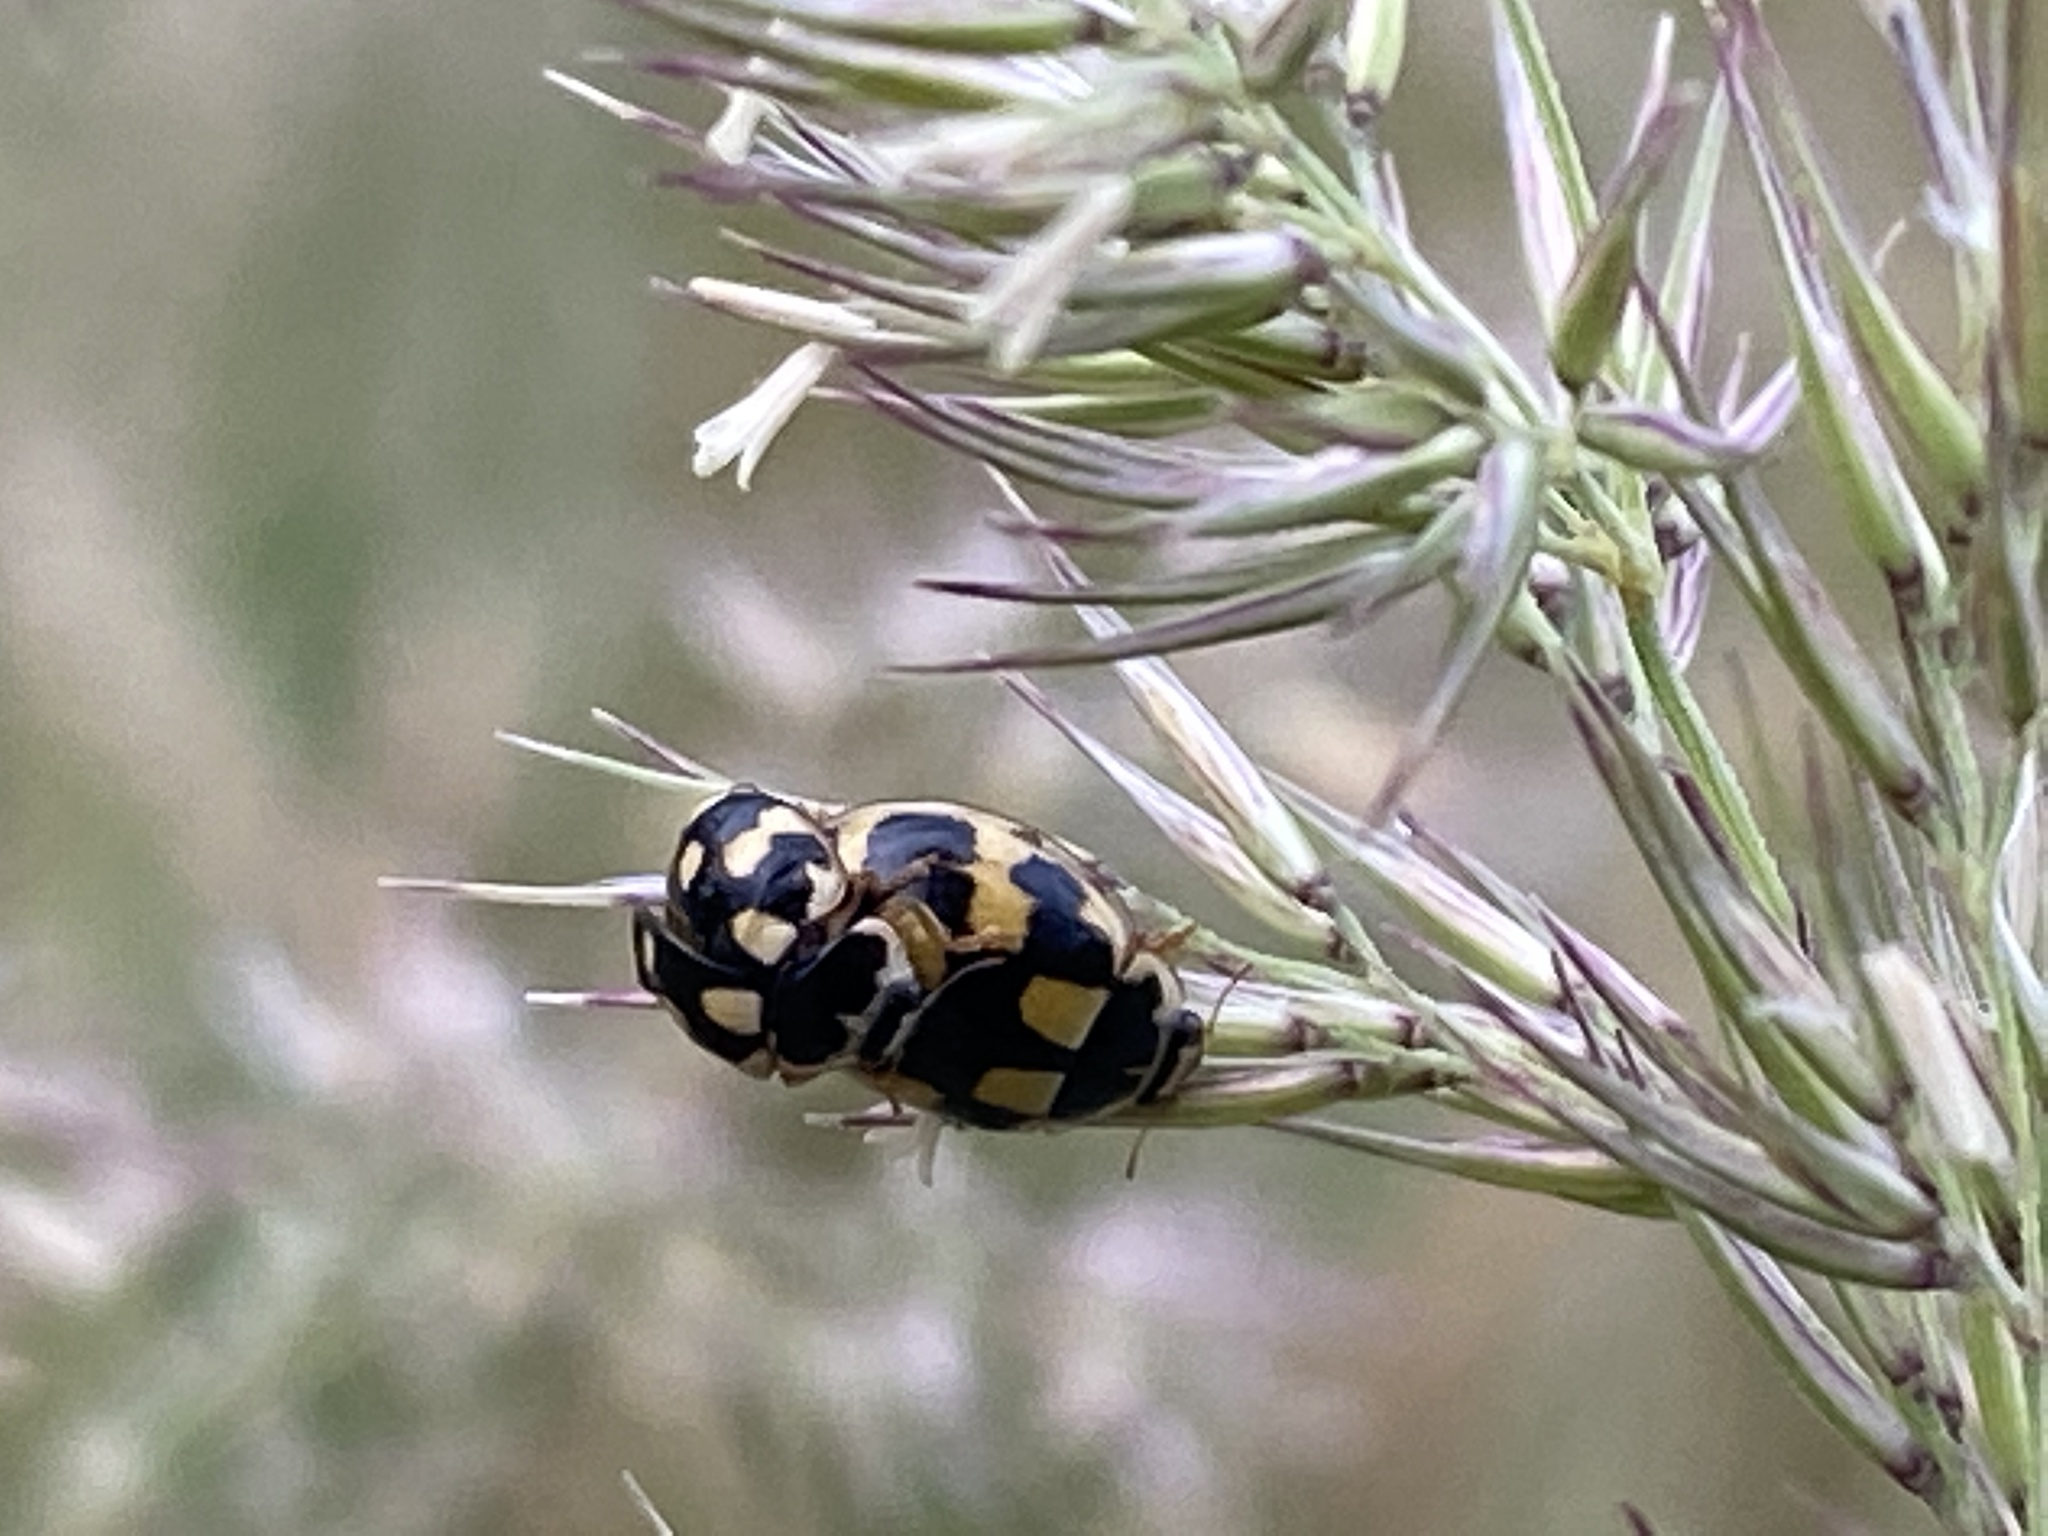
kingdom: Animalia
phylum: Arthropoda
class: Insecta
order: Coleoptera
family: Coccinellidae
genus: Propylaea
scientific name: Propylaea quatuordecimpunctata
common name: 14-spotted ladybird beetle
